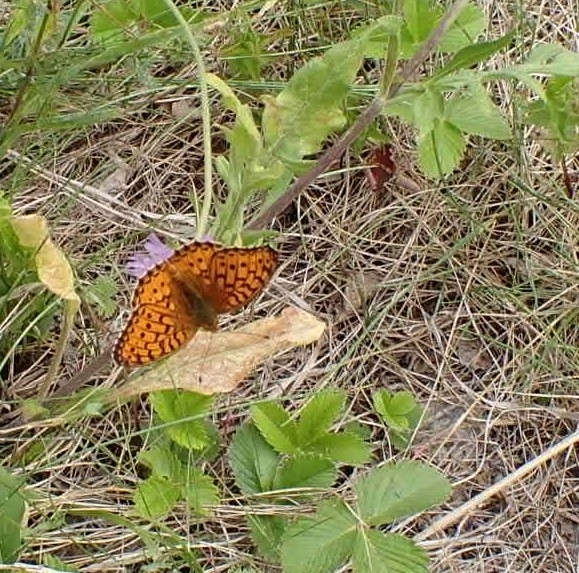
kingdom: Animalia
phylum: Arthropoda
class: Insecta
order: Lepidoptera
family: Nymphalidae
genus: Fabriciana
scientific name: Fabriciana niobe
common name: Niobe fritillary
